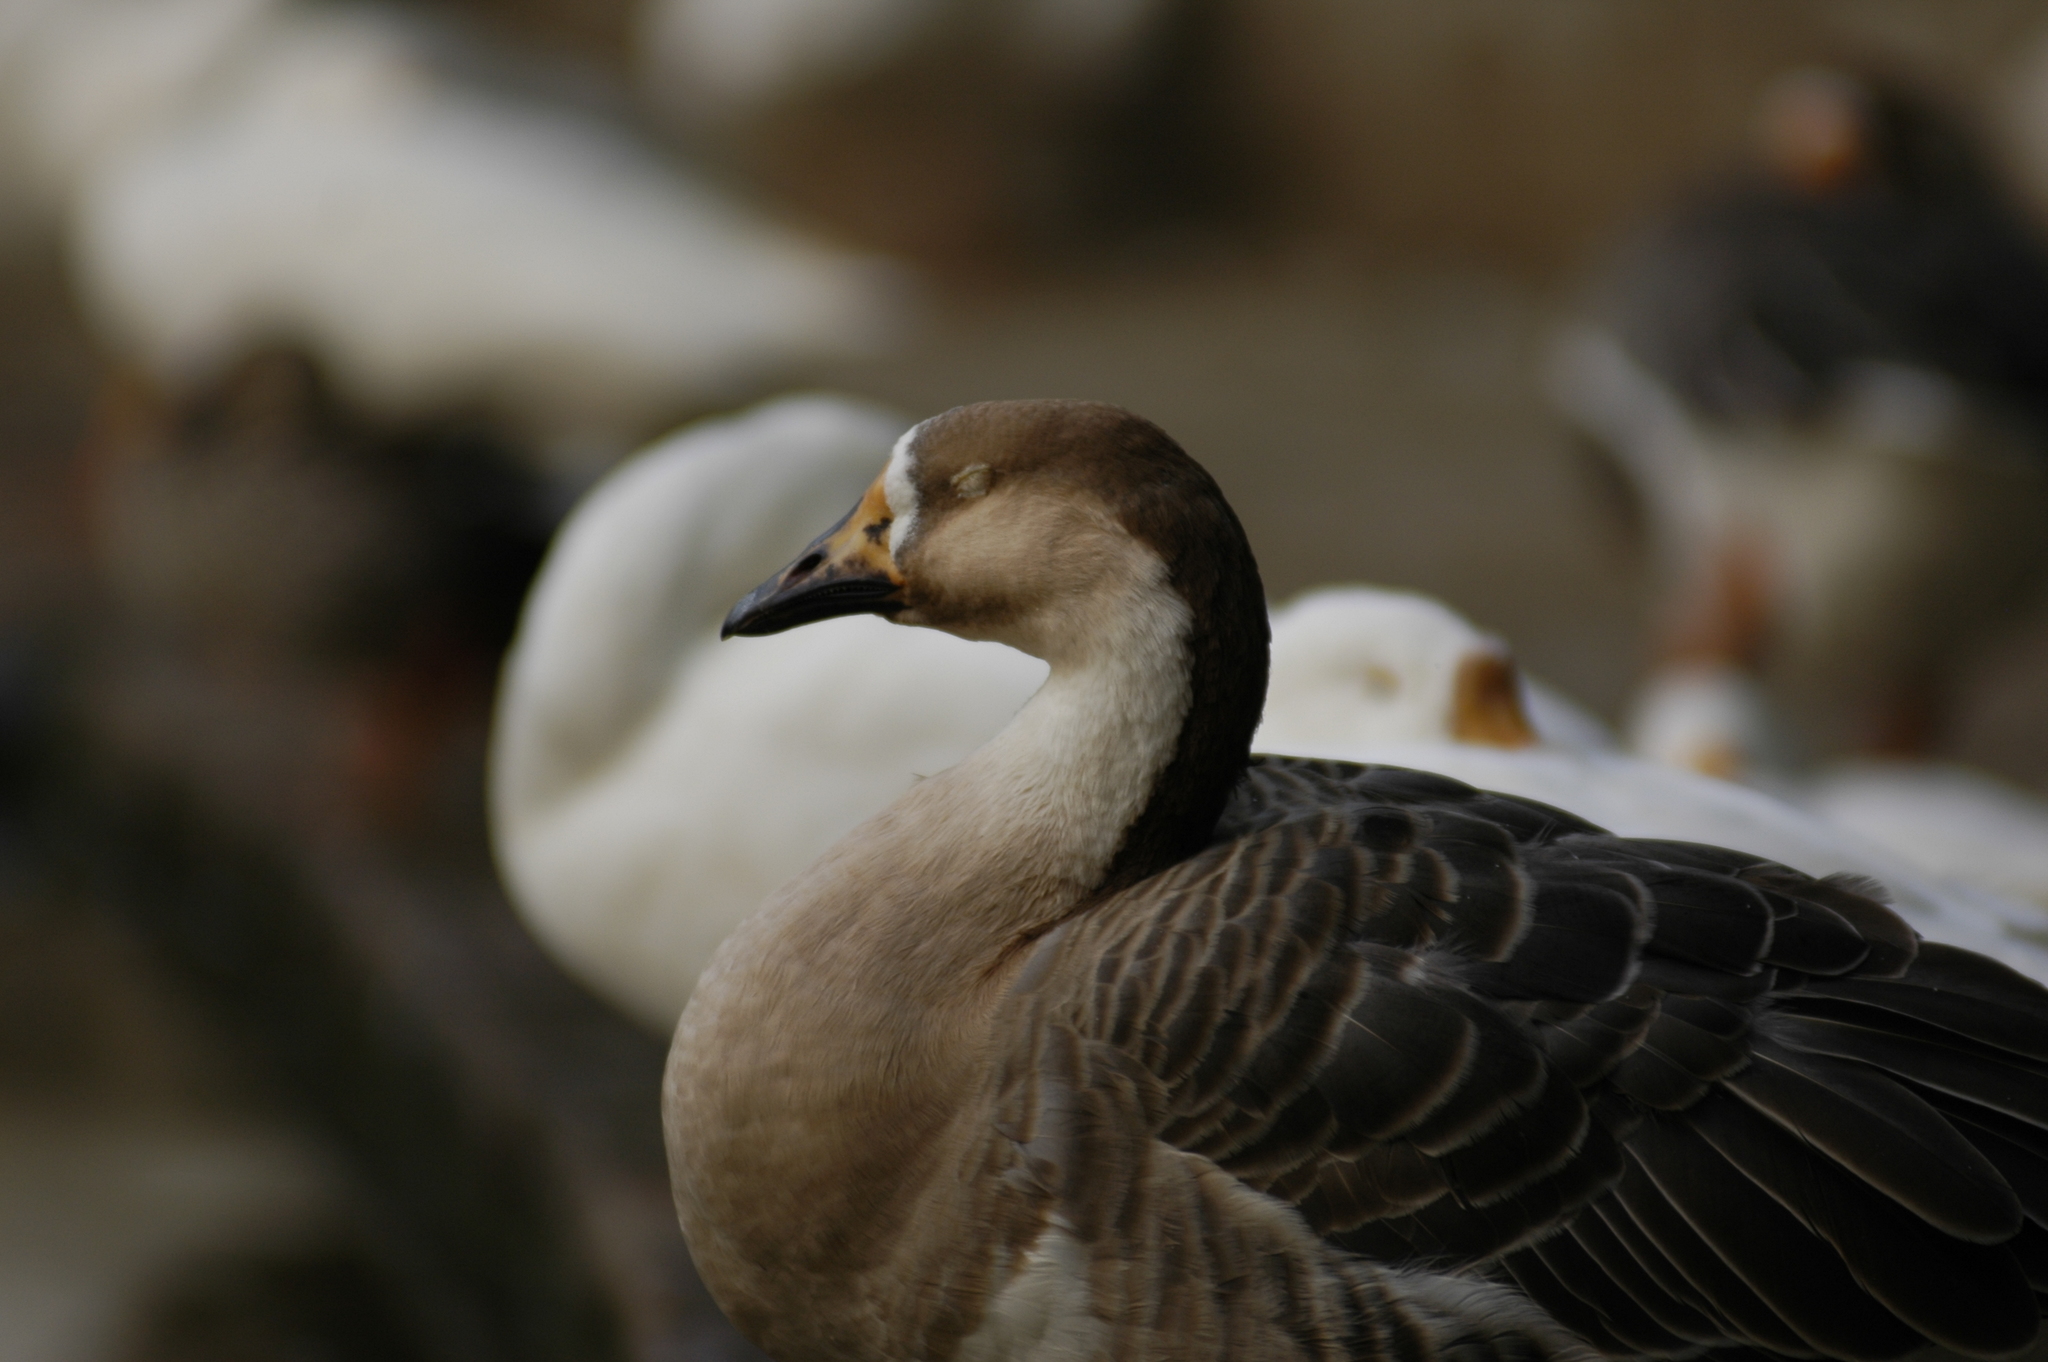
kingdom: Animalia
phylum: Chordata
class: Aves
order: Anseriformes
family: Anatidae
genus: Anser
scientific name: Anser cygnoides
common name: Swan goose
